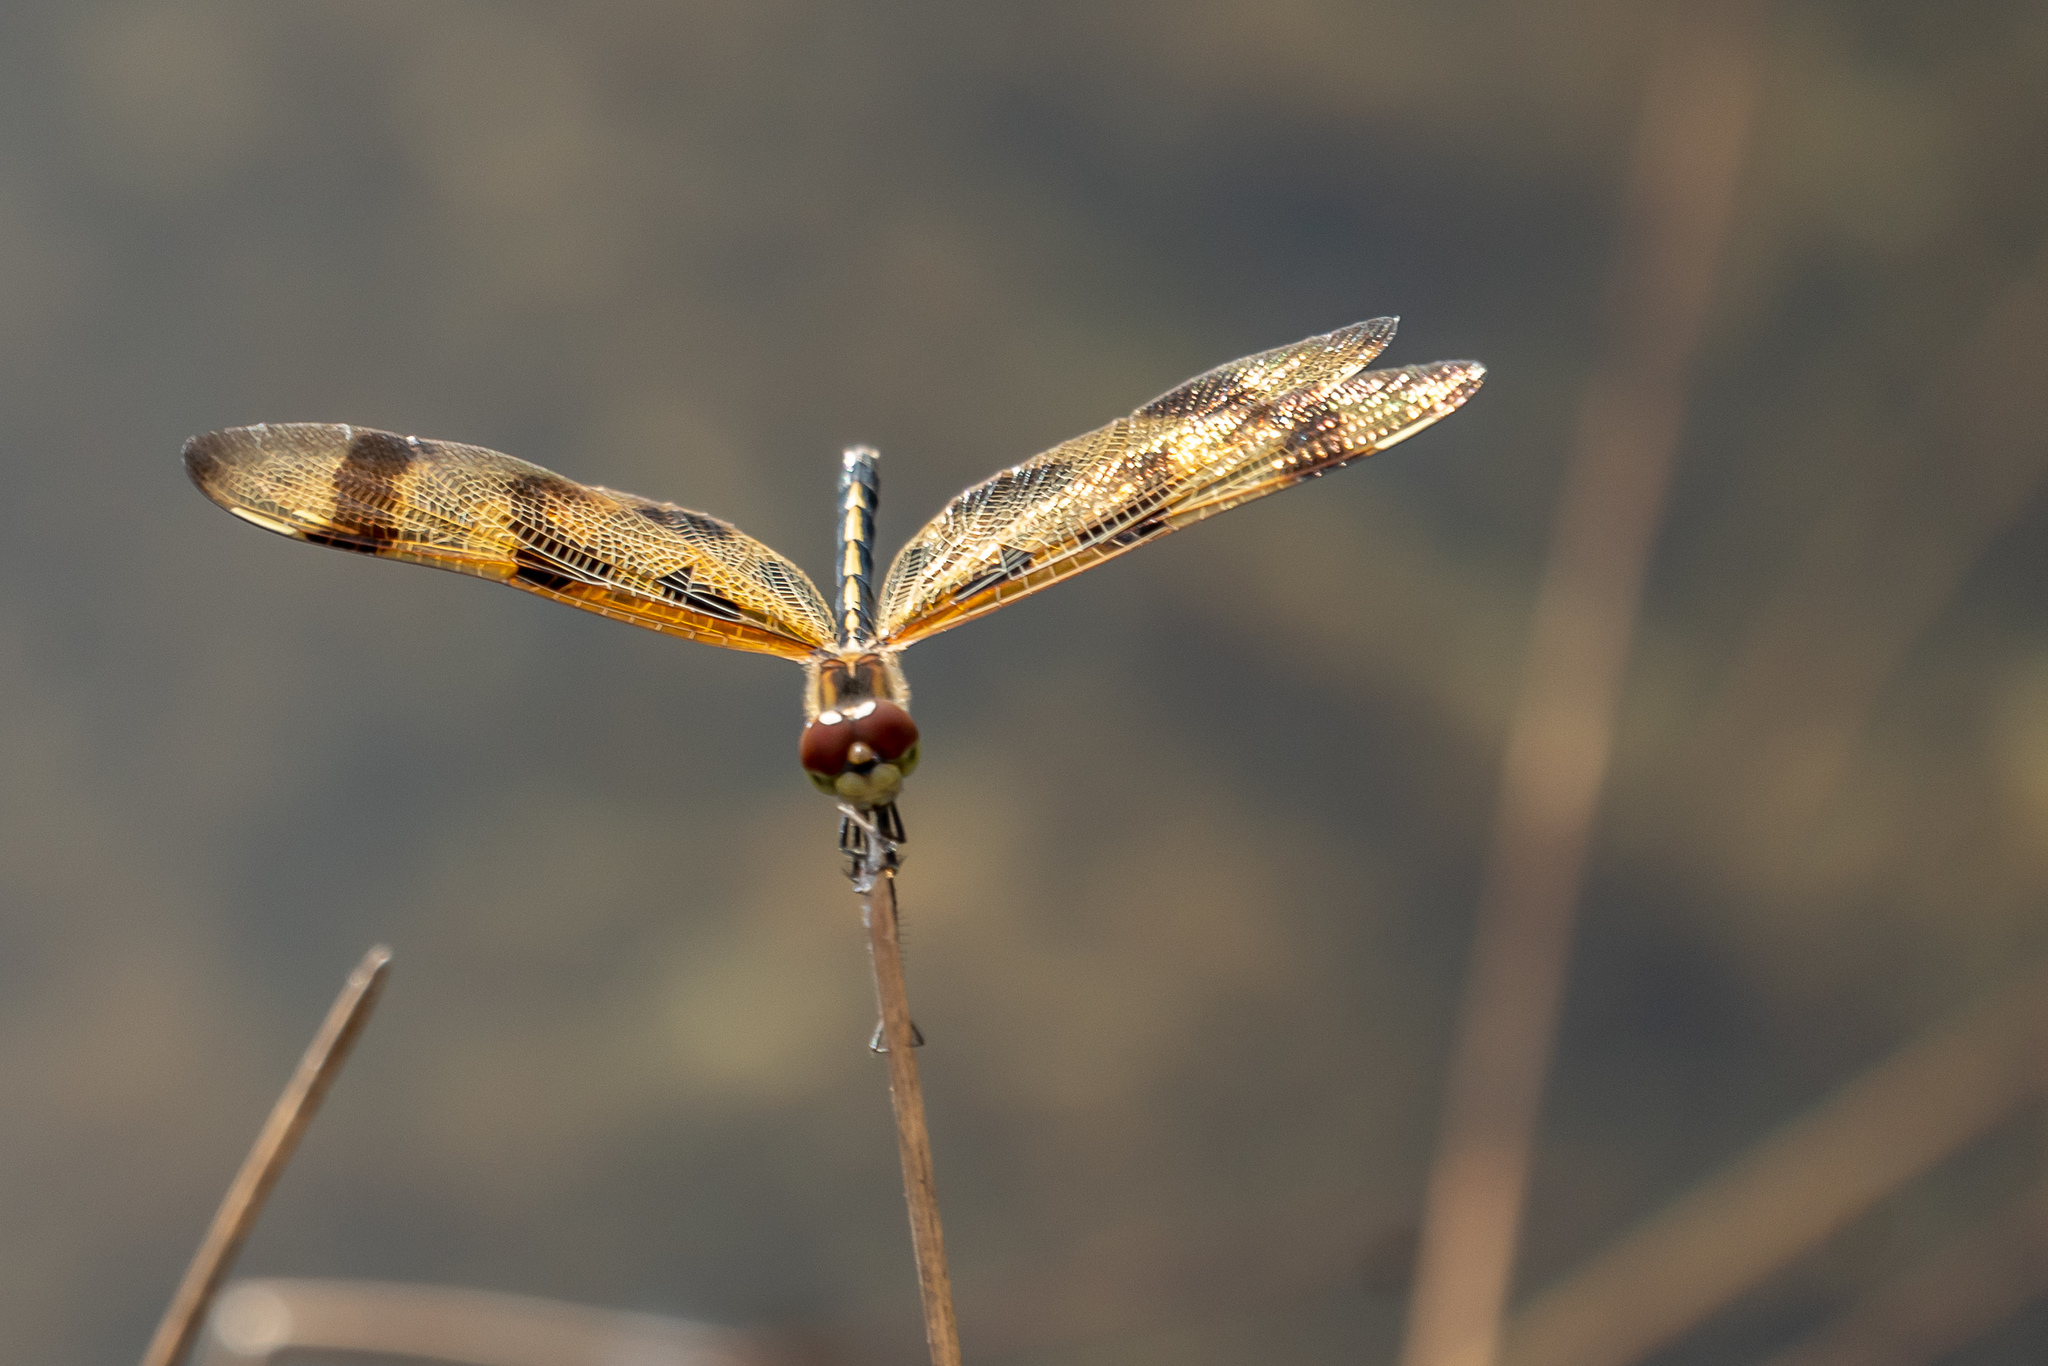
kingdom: Animalia
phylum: Arthropoda
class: Insecta
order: Odonata
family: Libellulidae
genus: Celithemis
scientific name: Celithemis eponina
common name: Halloween pennant
